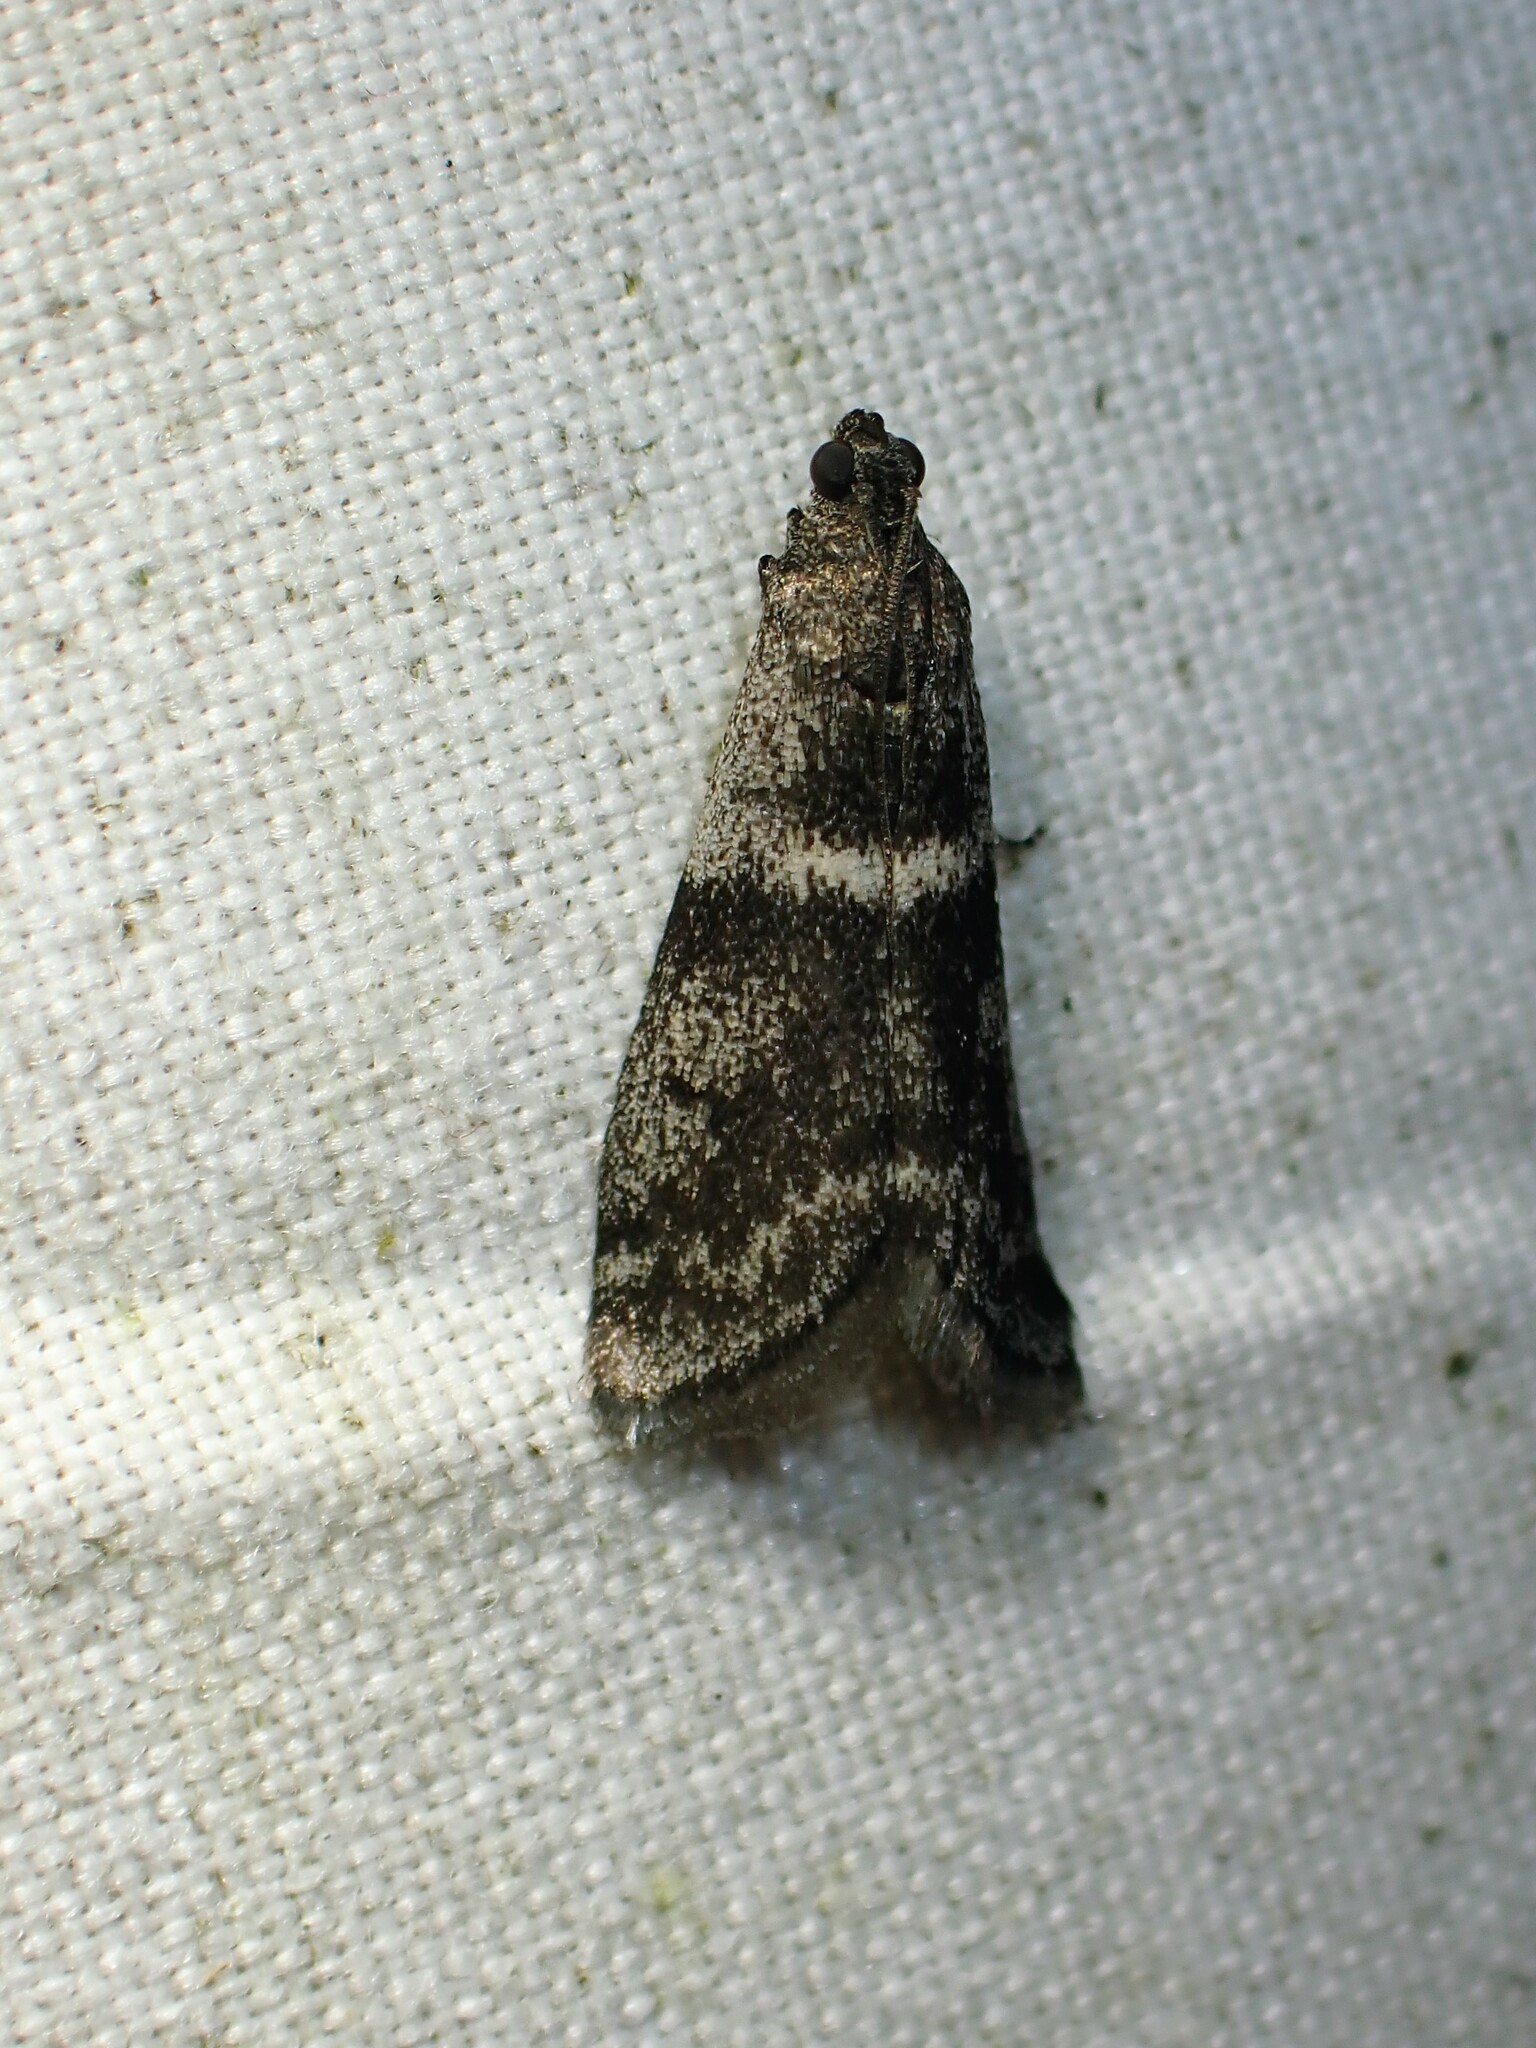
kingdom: Animalia
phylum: Arthropoda
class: Insecta
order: Lepidoptera
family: Pyralidae
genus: Apomyelois
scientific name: Apomyelois bistriatella
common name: Heath knot-horn
